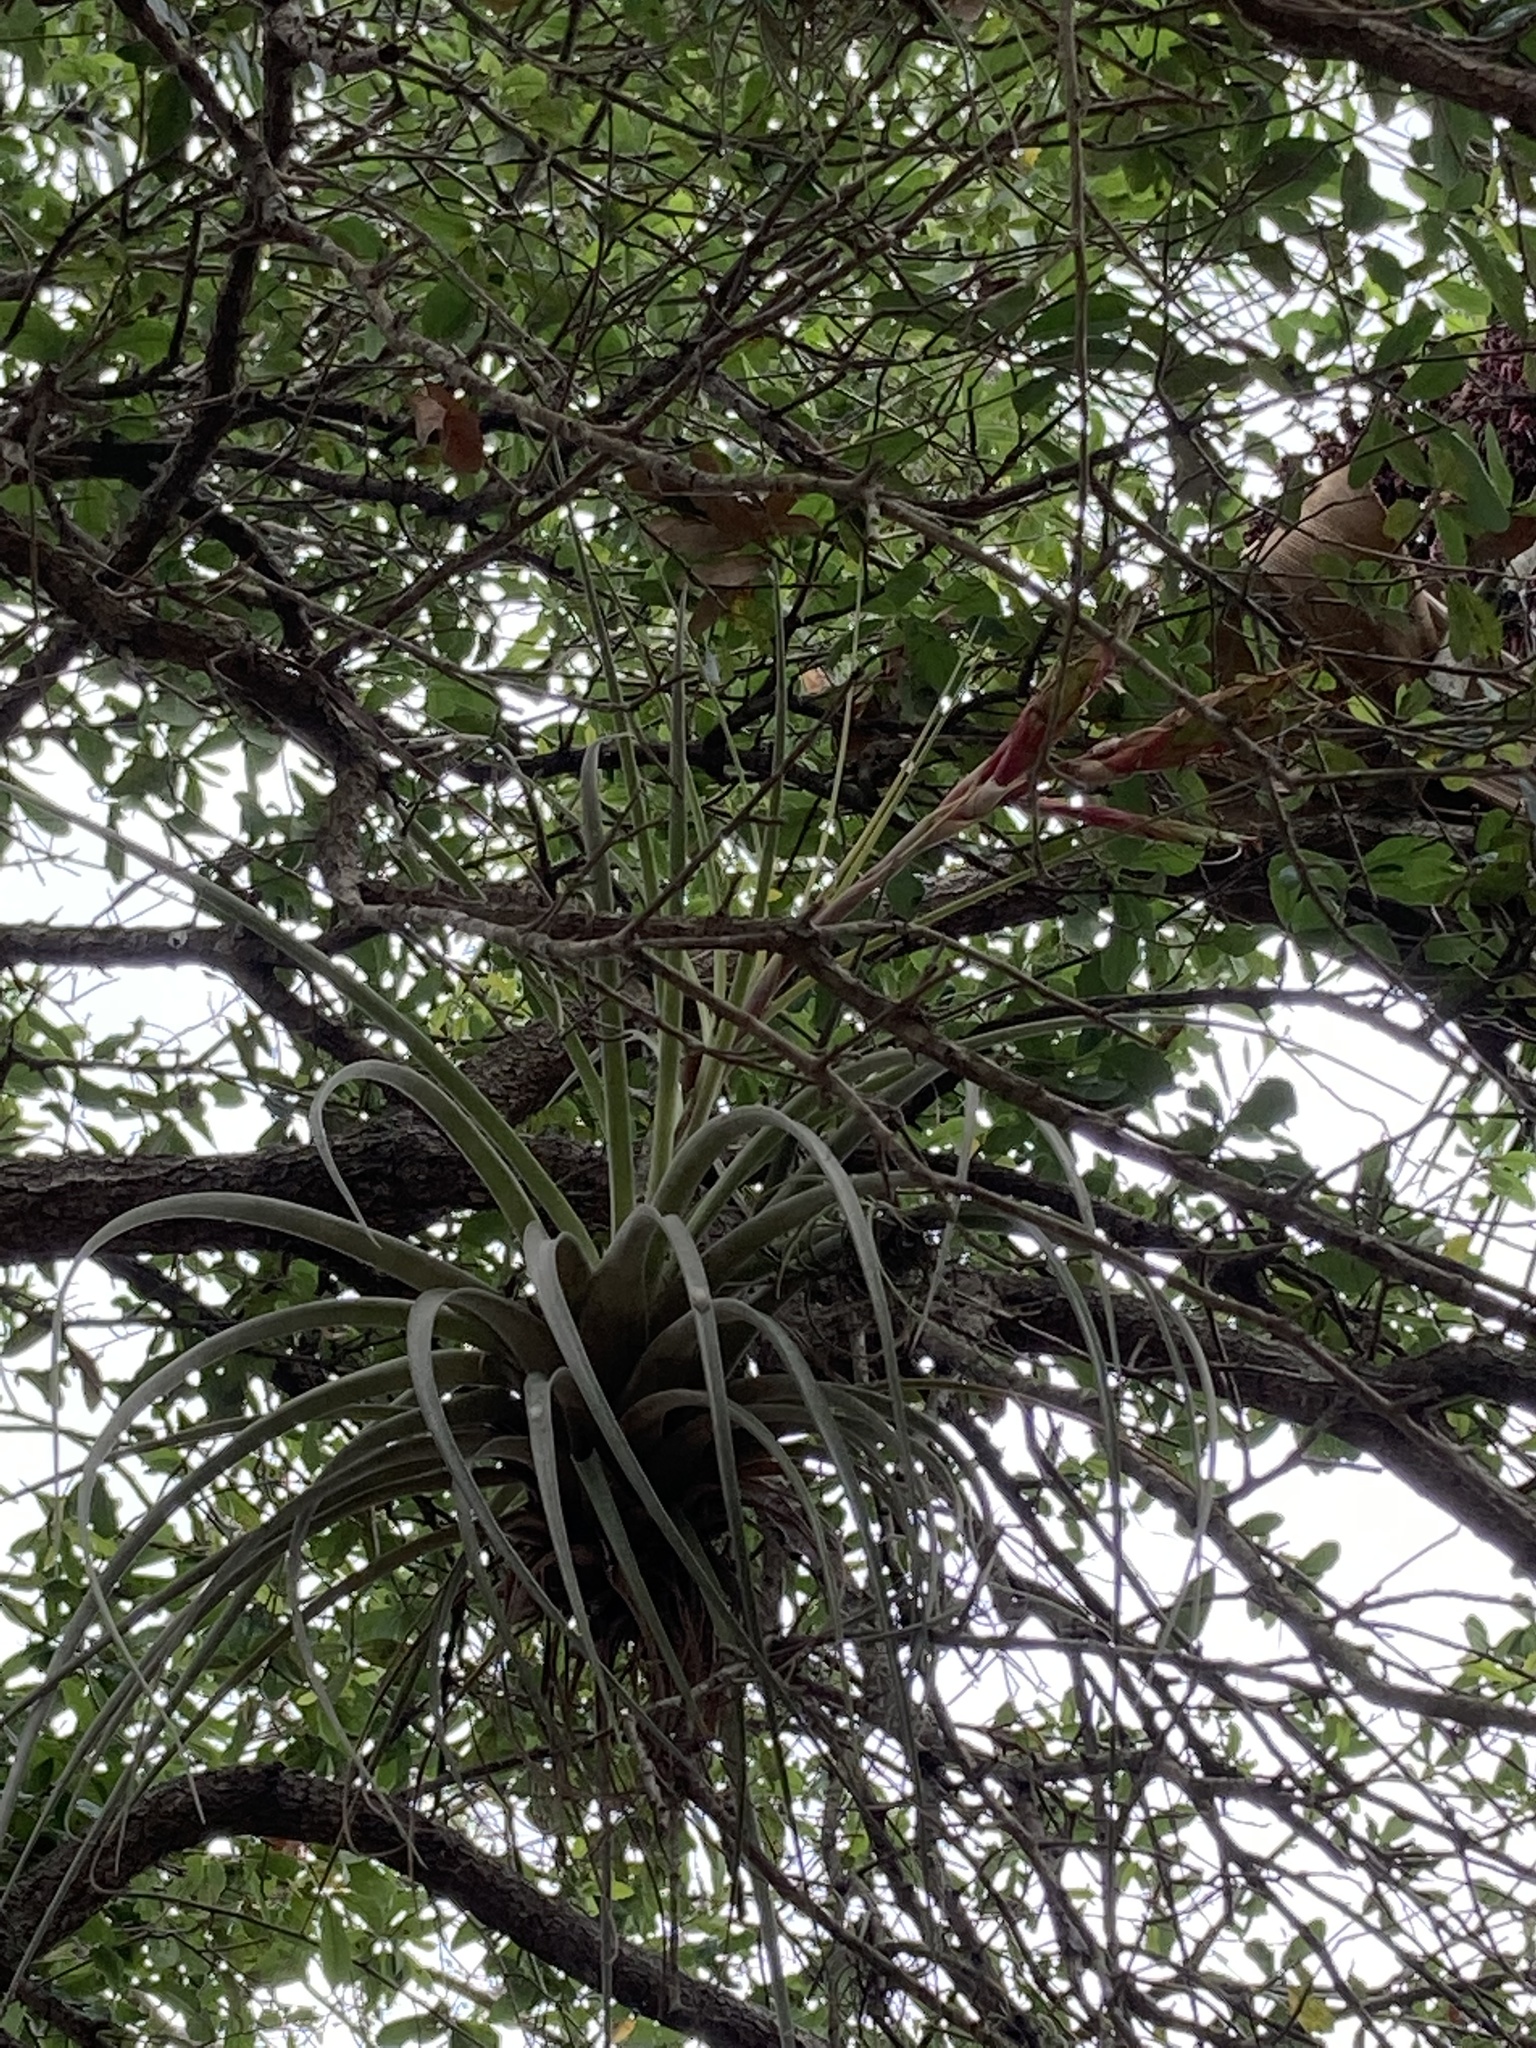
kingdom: Plantae
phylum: Tracheophyta
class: Liliopsida
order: Poales
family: Bromeliaceae
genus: Tillandsia
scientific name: Tillandsia fasciculata
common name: Giant airplant
